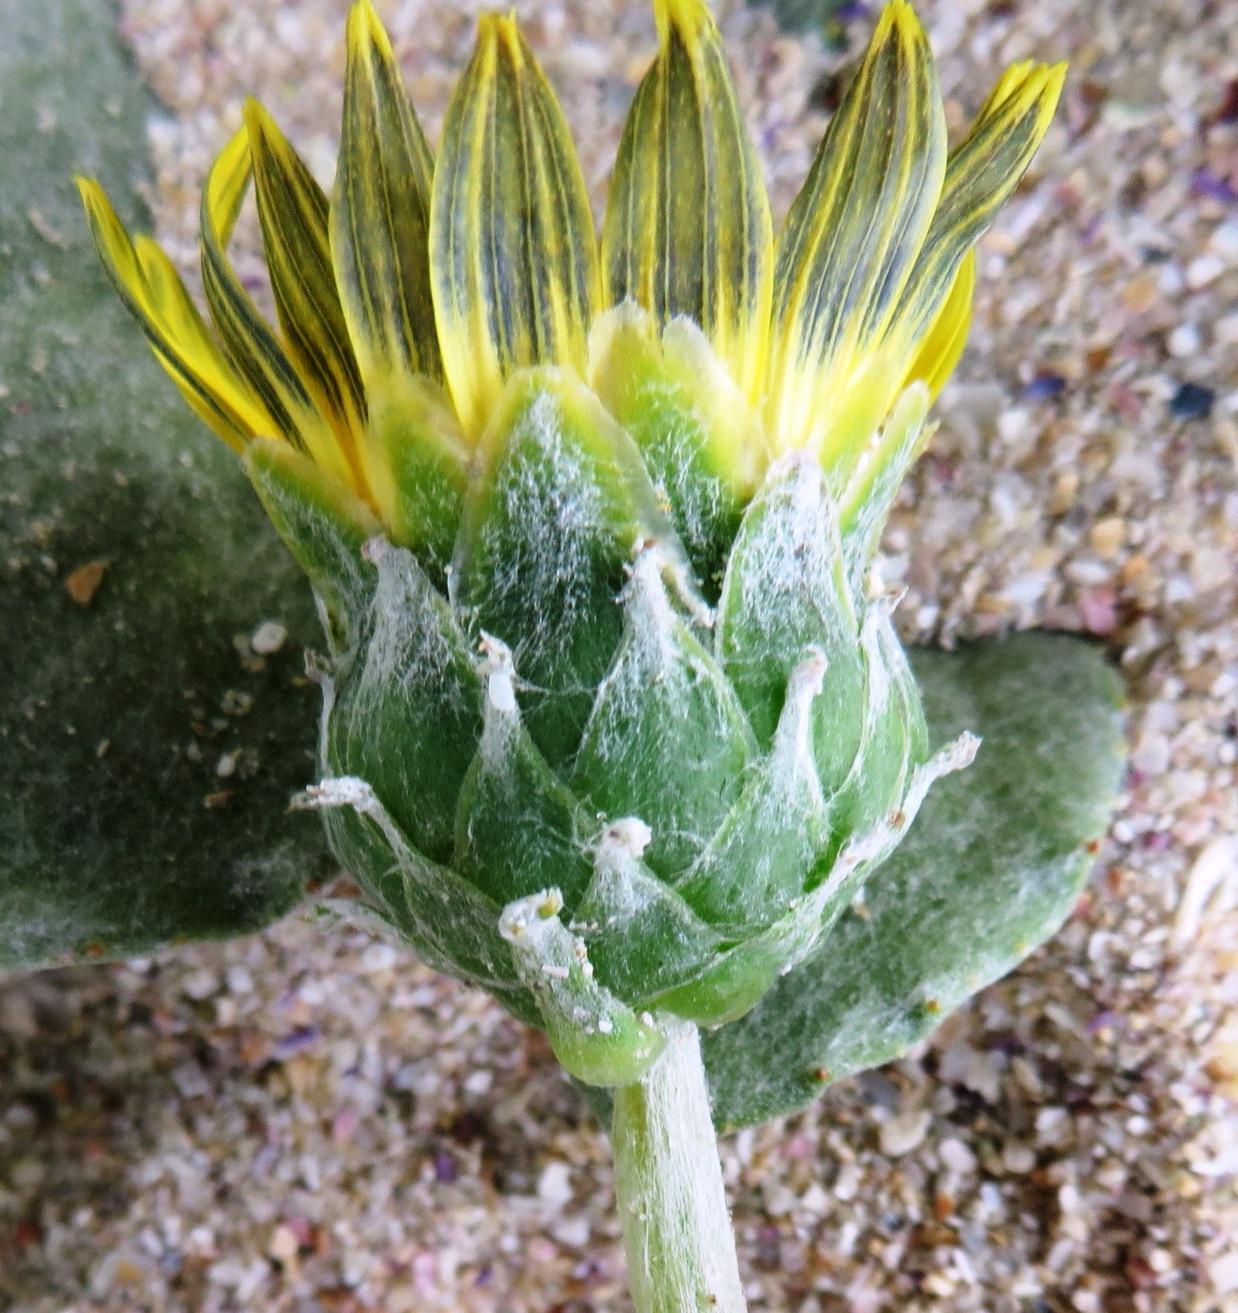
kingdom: Plantae
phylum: Tracheophyta
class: Magnoliopsida
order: Asterales
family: Asteraceae
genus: Arctotheca
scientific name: Arctotheca populifolia
